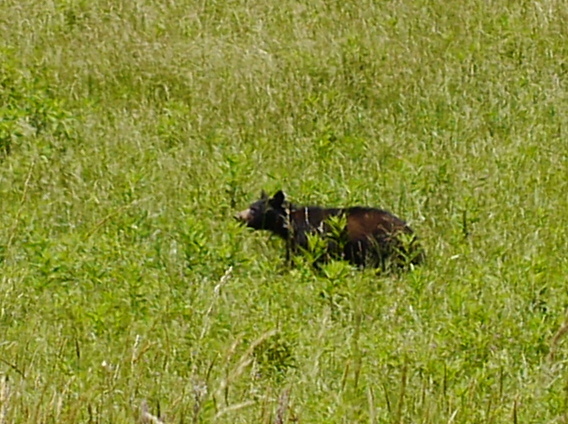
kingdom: Animalia
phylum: Chordata
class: Mammalia
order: Carnivora
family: Ursidae
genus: Ursus
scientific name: Ursus americanus
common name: American black bear
